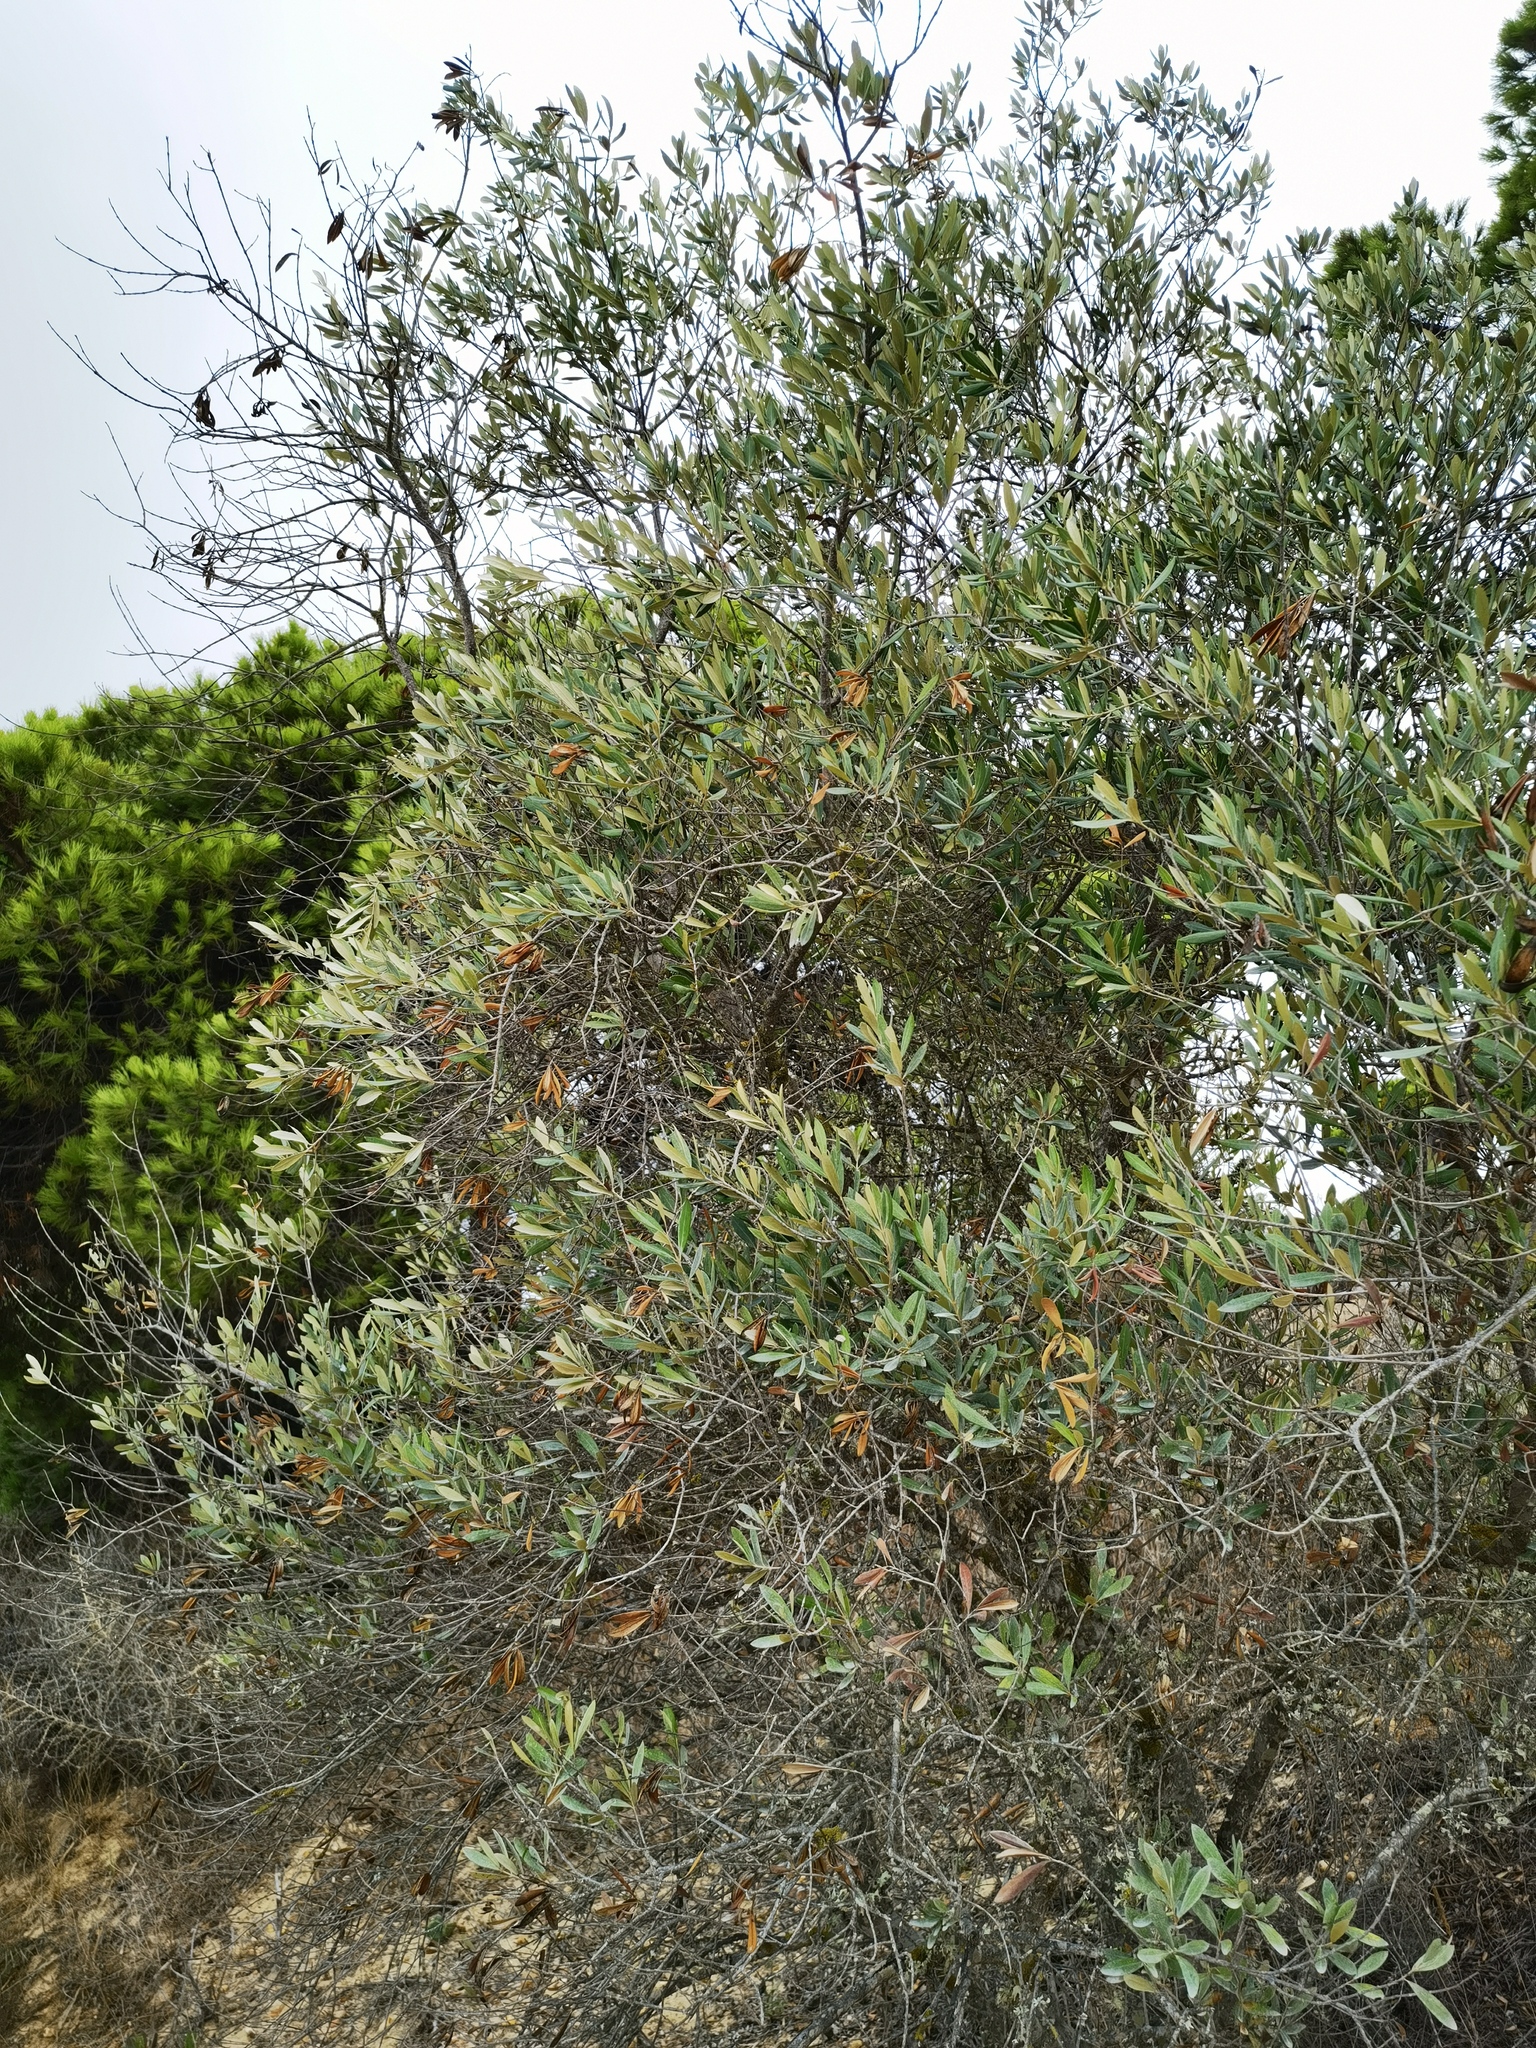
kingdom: Plantae
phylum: Tracheophyta
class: Magnoliopsida
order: Lamiales
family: Oleaceae
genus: Olea
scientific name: Olea europaea
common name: Olive
